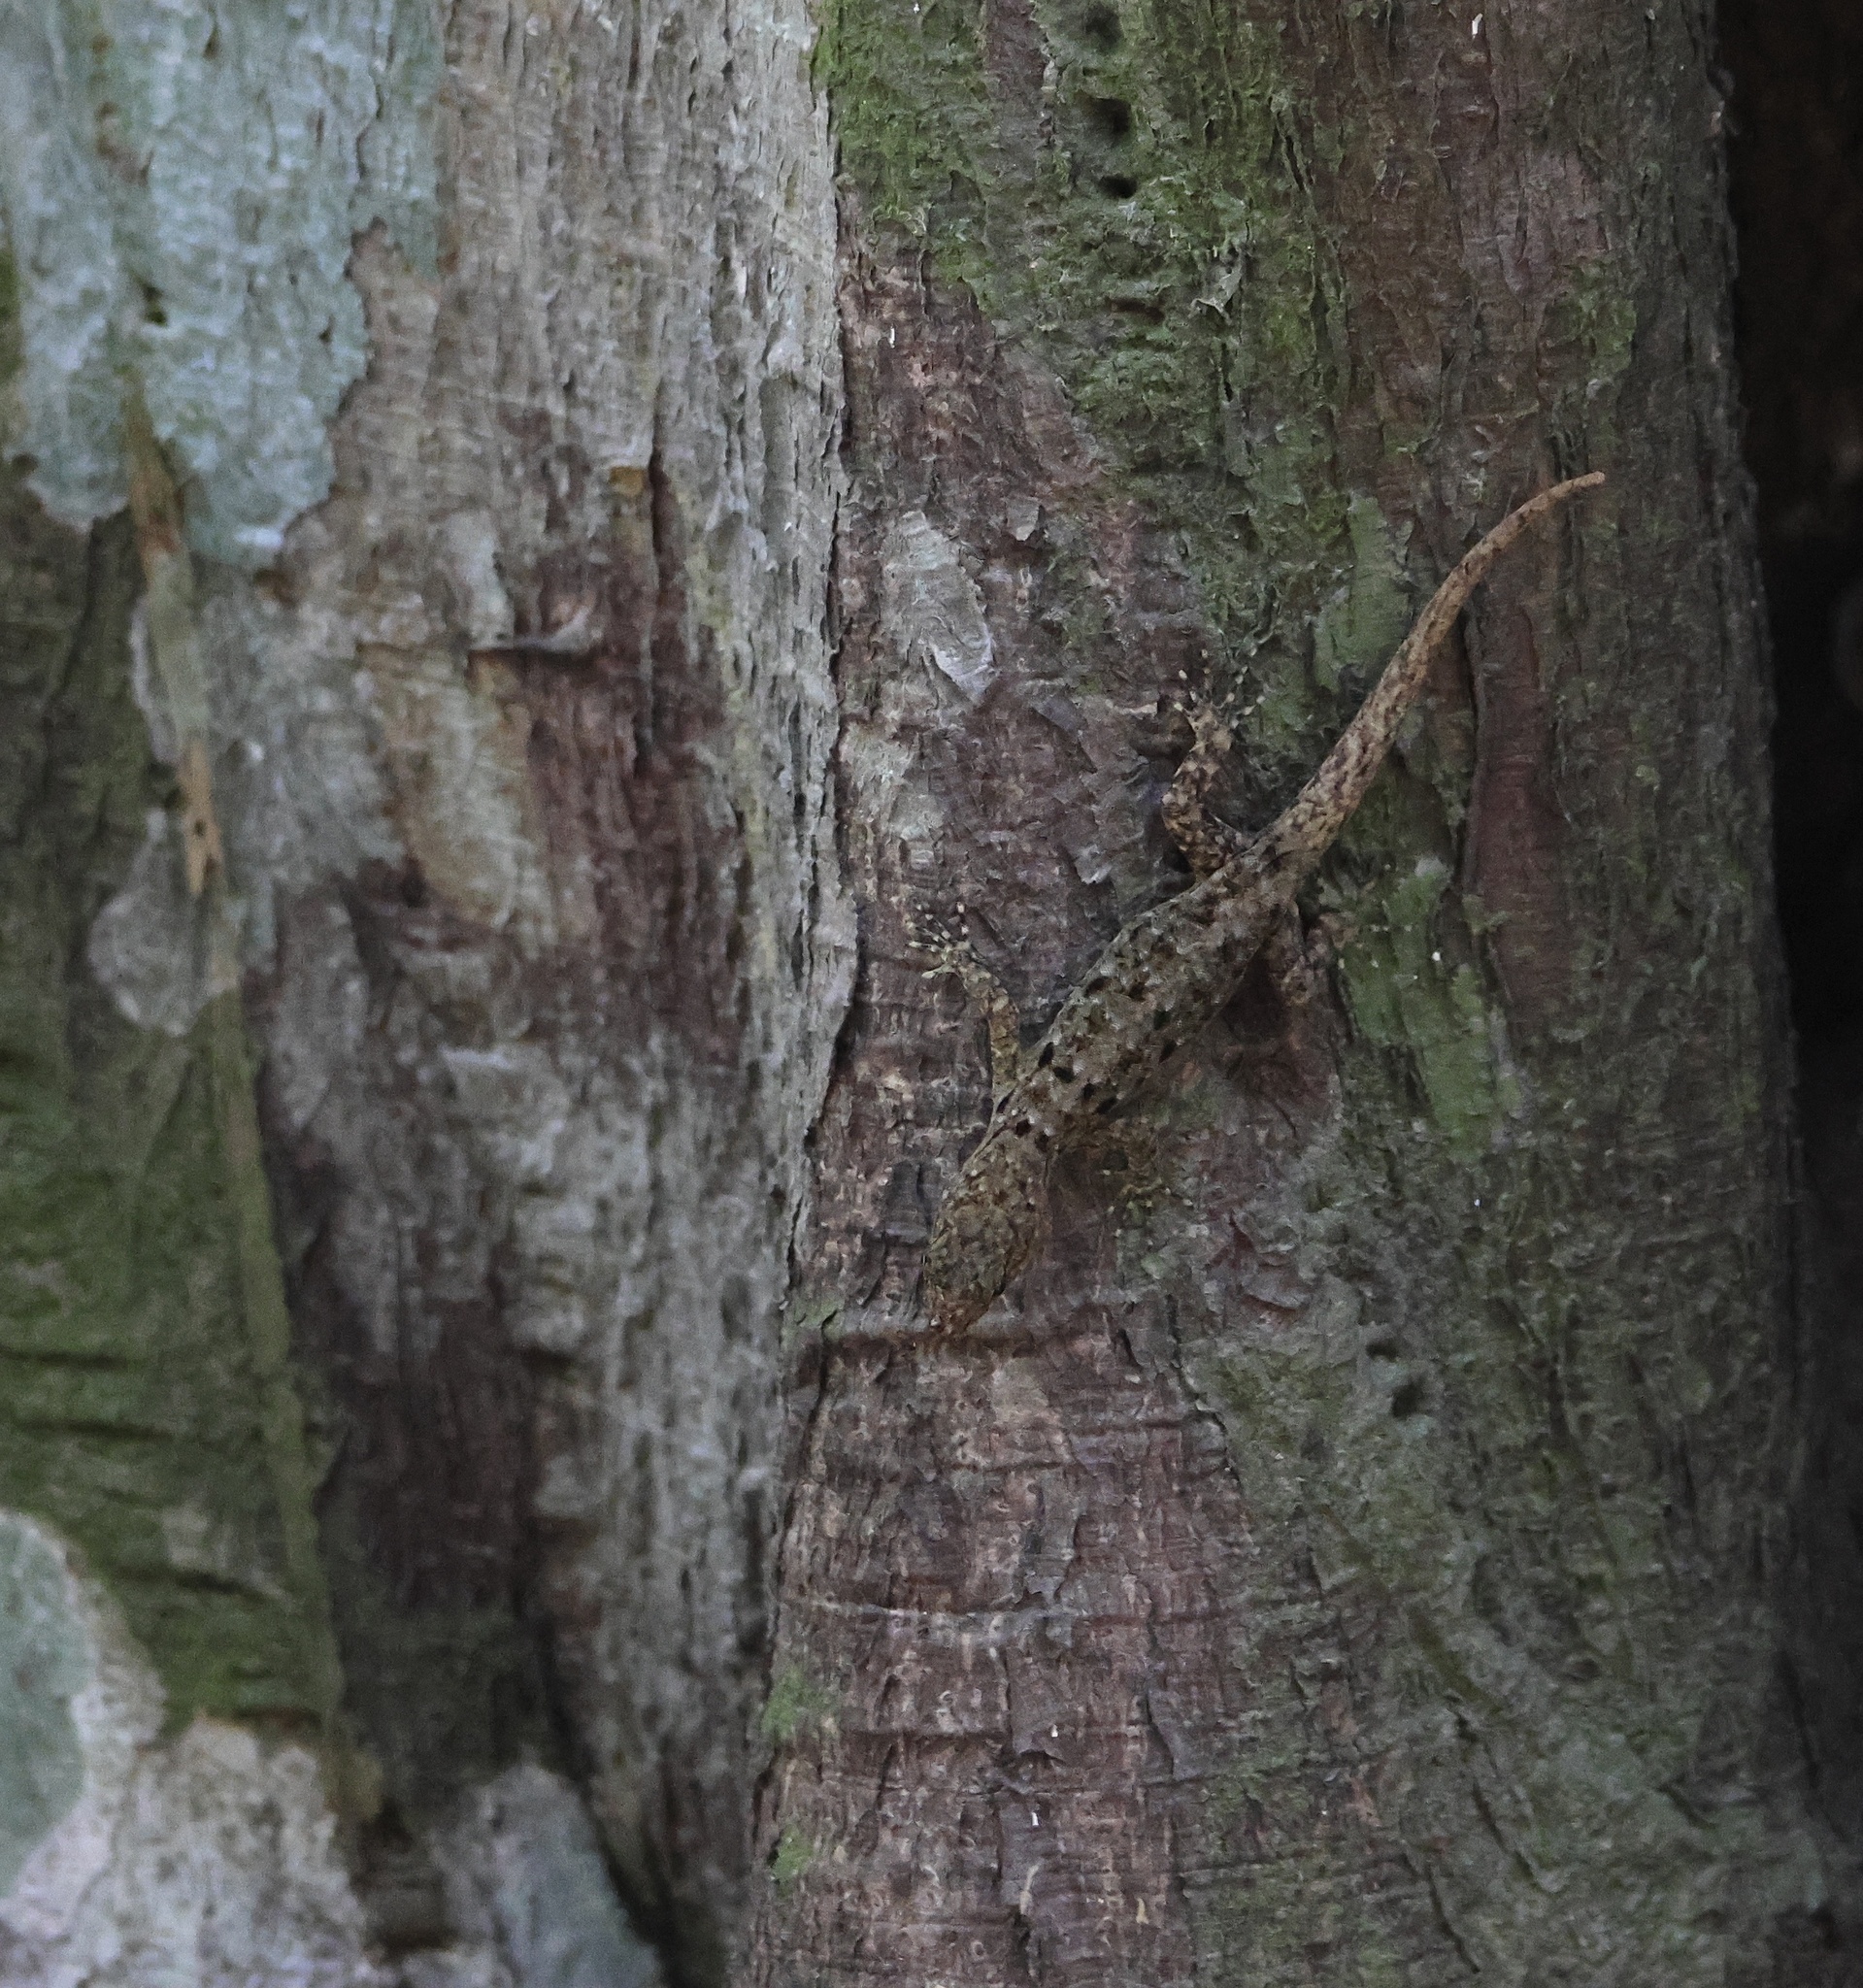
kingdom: Animalia
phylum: Chordata
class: Squamata
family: Sphaerodactylidae
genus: Gonatodes
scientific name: Gonatodes albogularis
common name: Yellow-headed gecko
